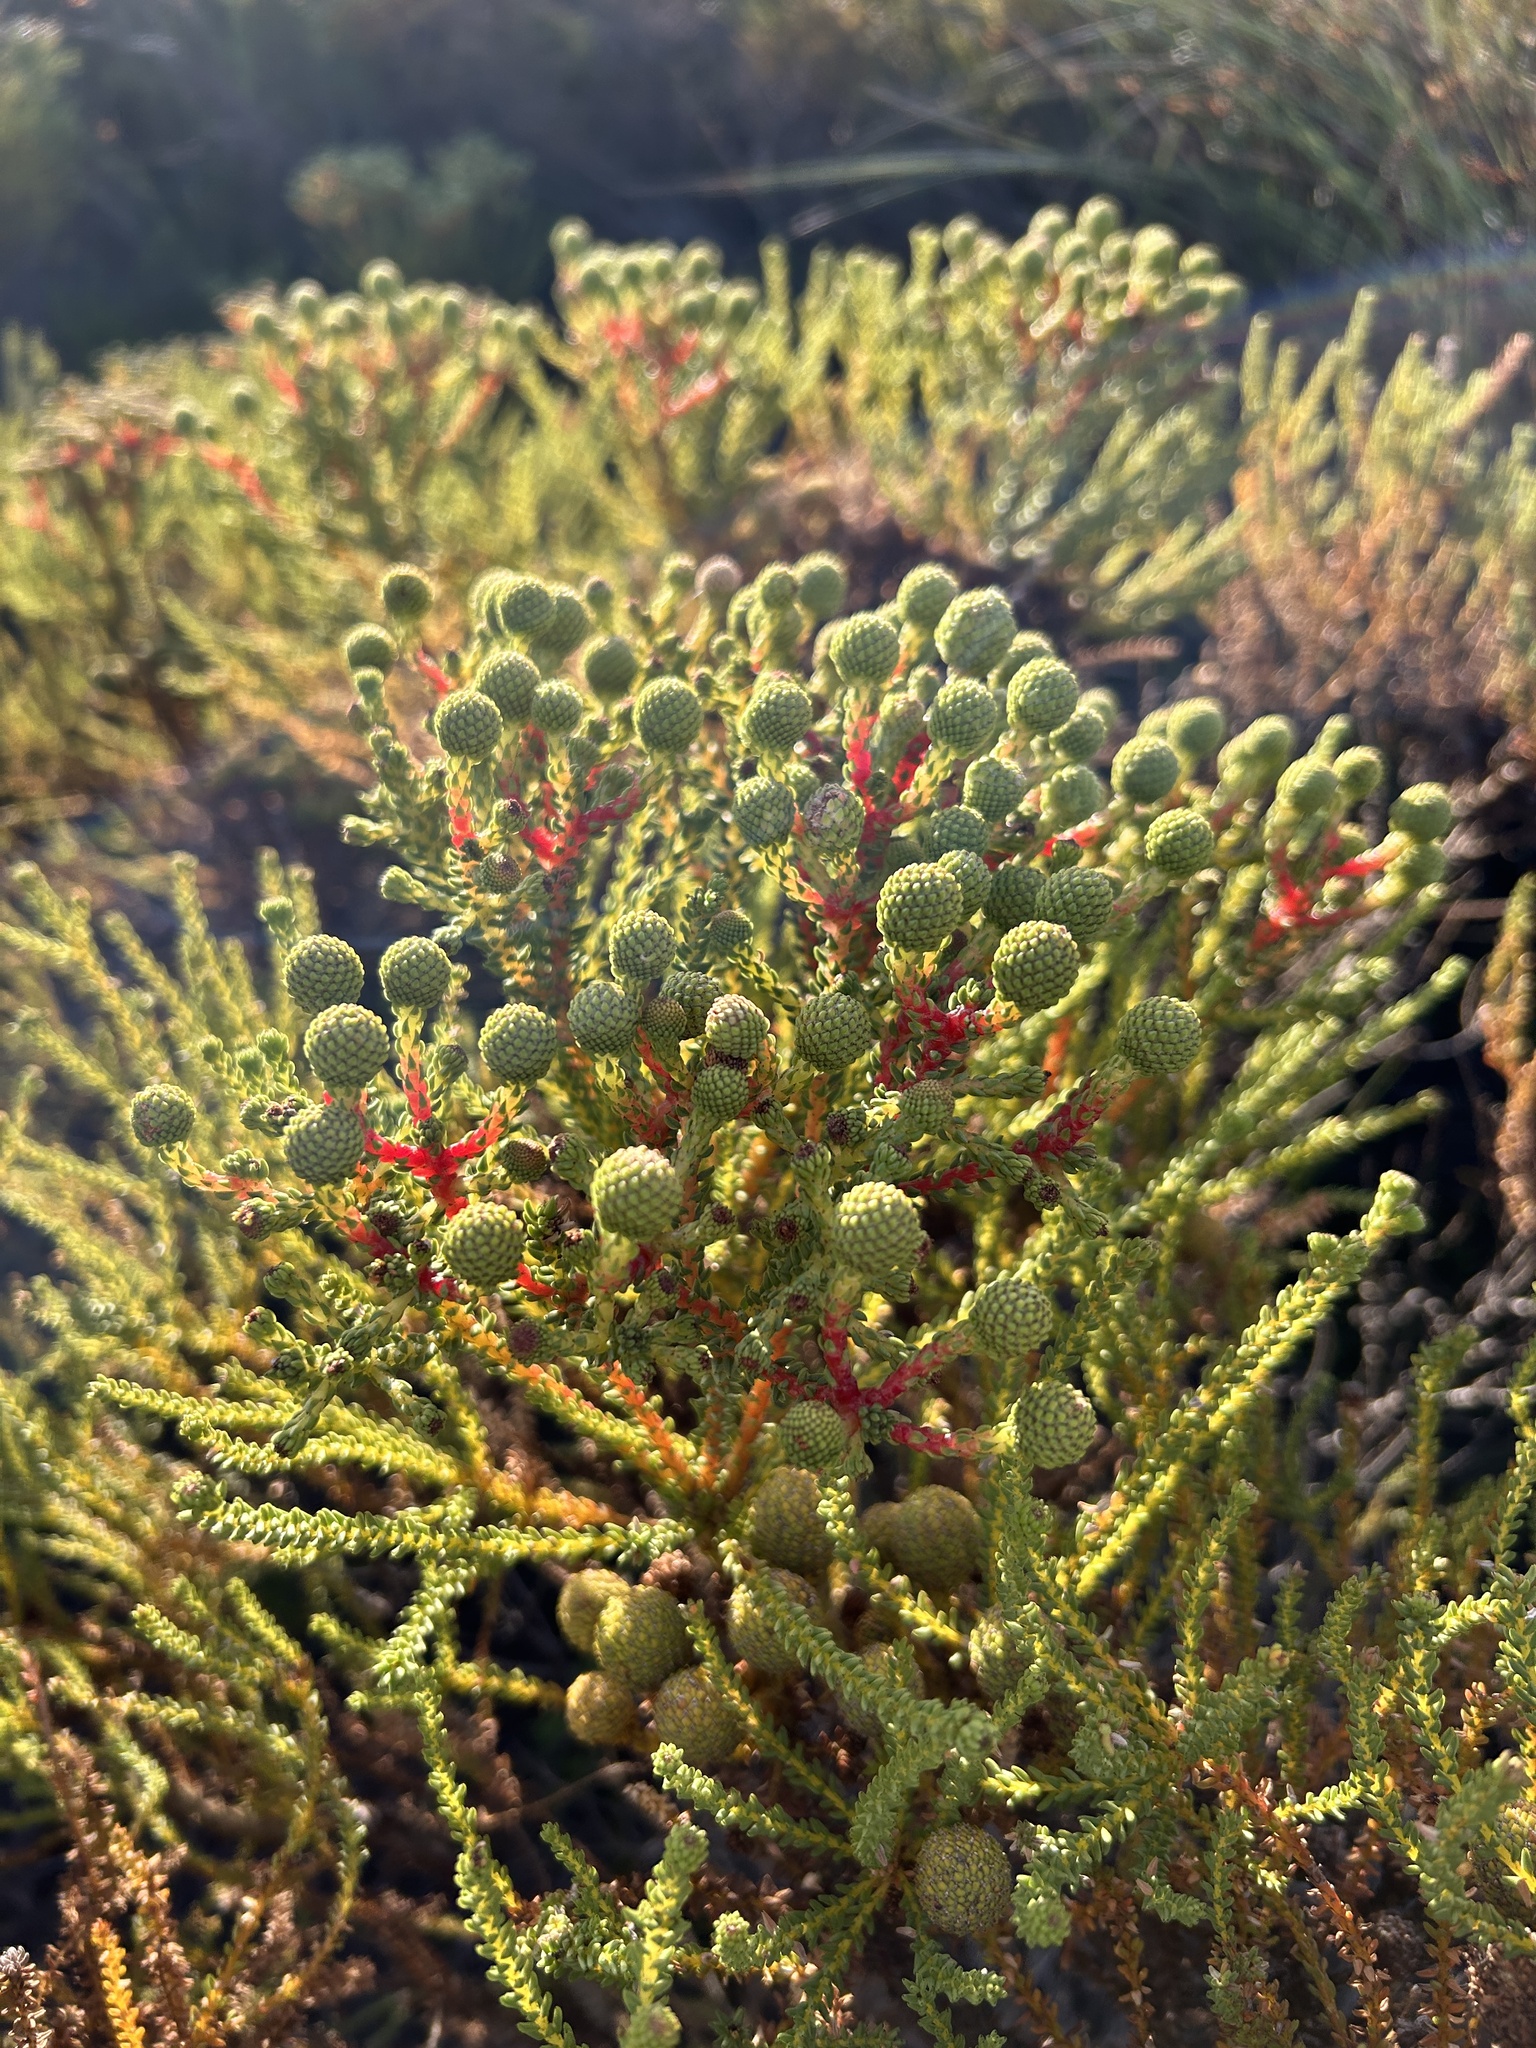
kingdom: Plantae
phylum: Tracheophyta
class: Magnoliopsida
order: Bruniales
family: Bruniaceae
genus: Berzelia
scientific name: Berzelia abrotanoides
